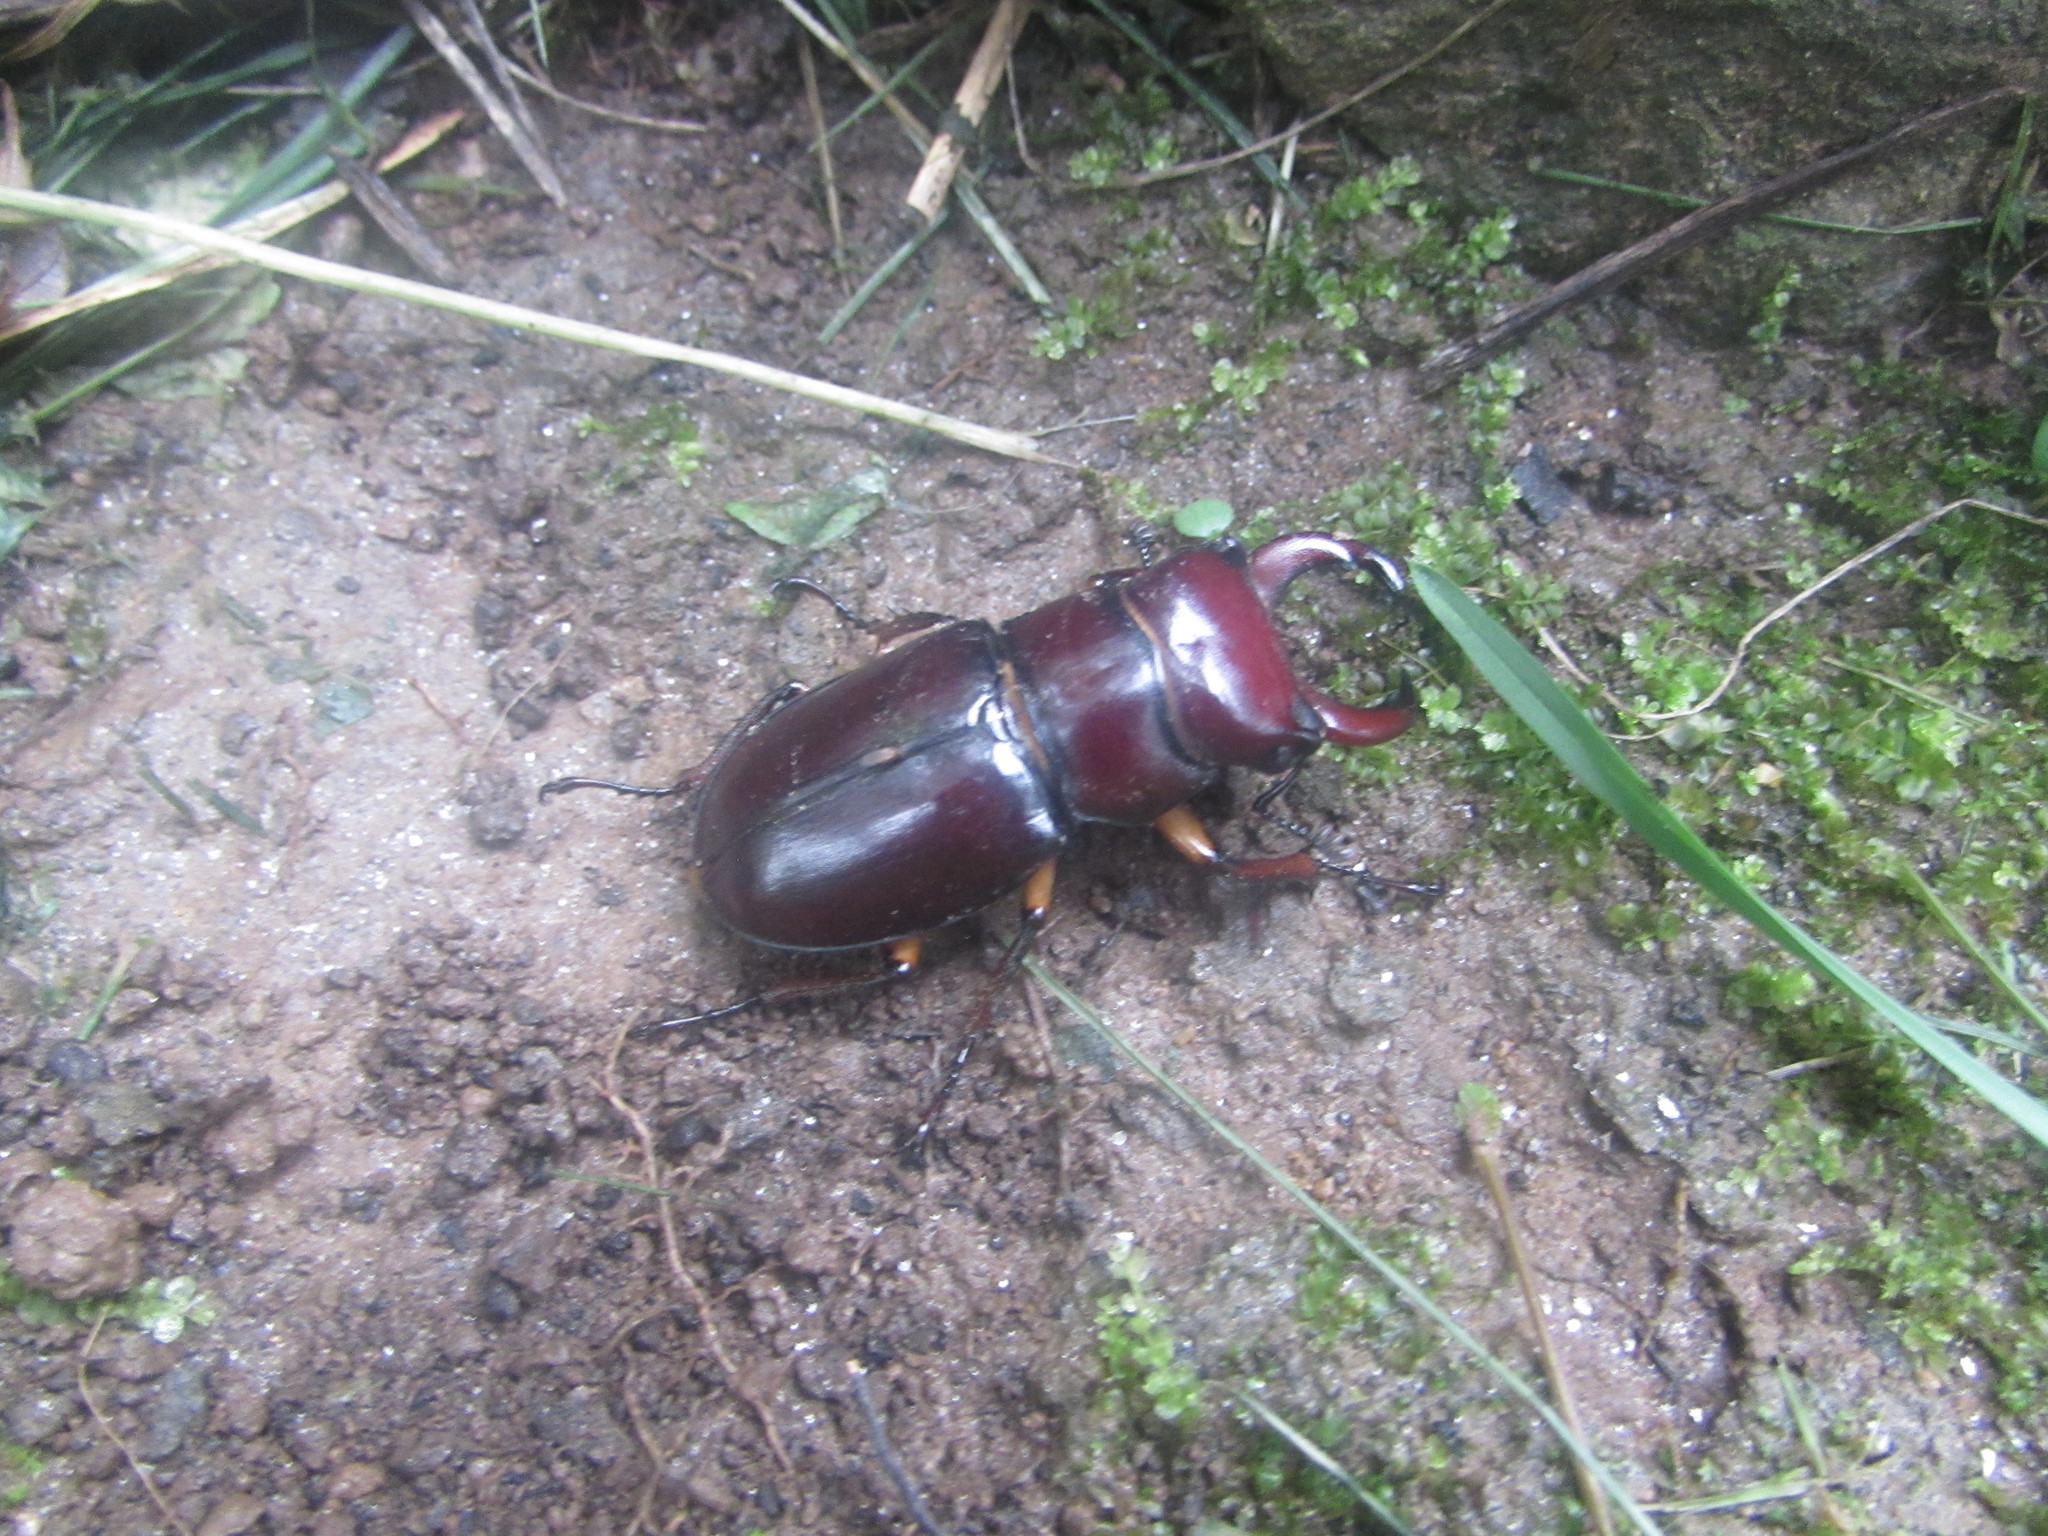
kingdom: Animalia
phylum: Arthropoda
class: Insecta
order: Coleoptera
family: Lucanidae
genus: Lucanus
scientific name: Lucanus capreolus
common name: Stag beetle
